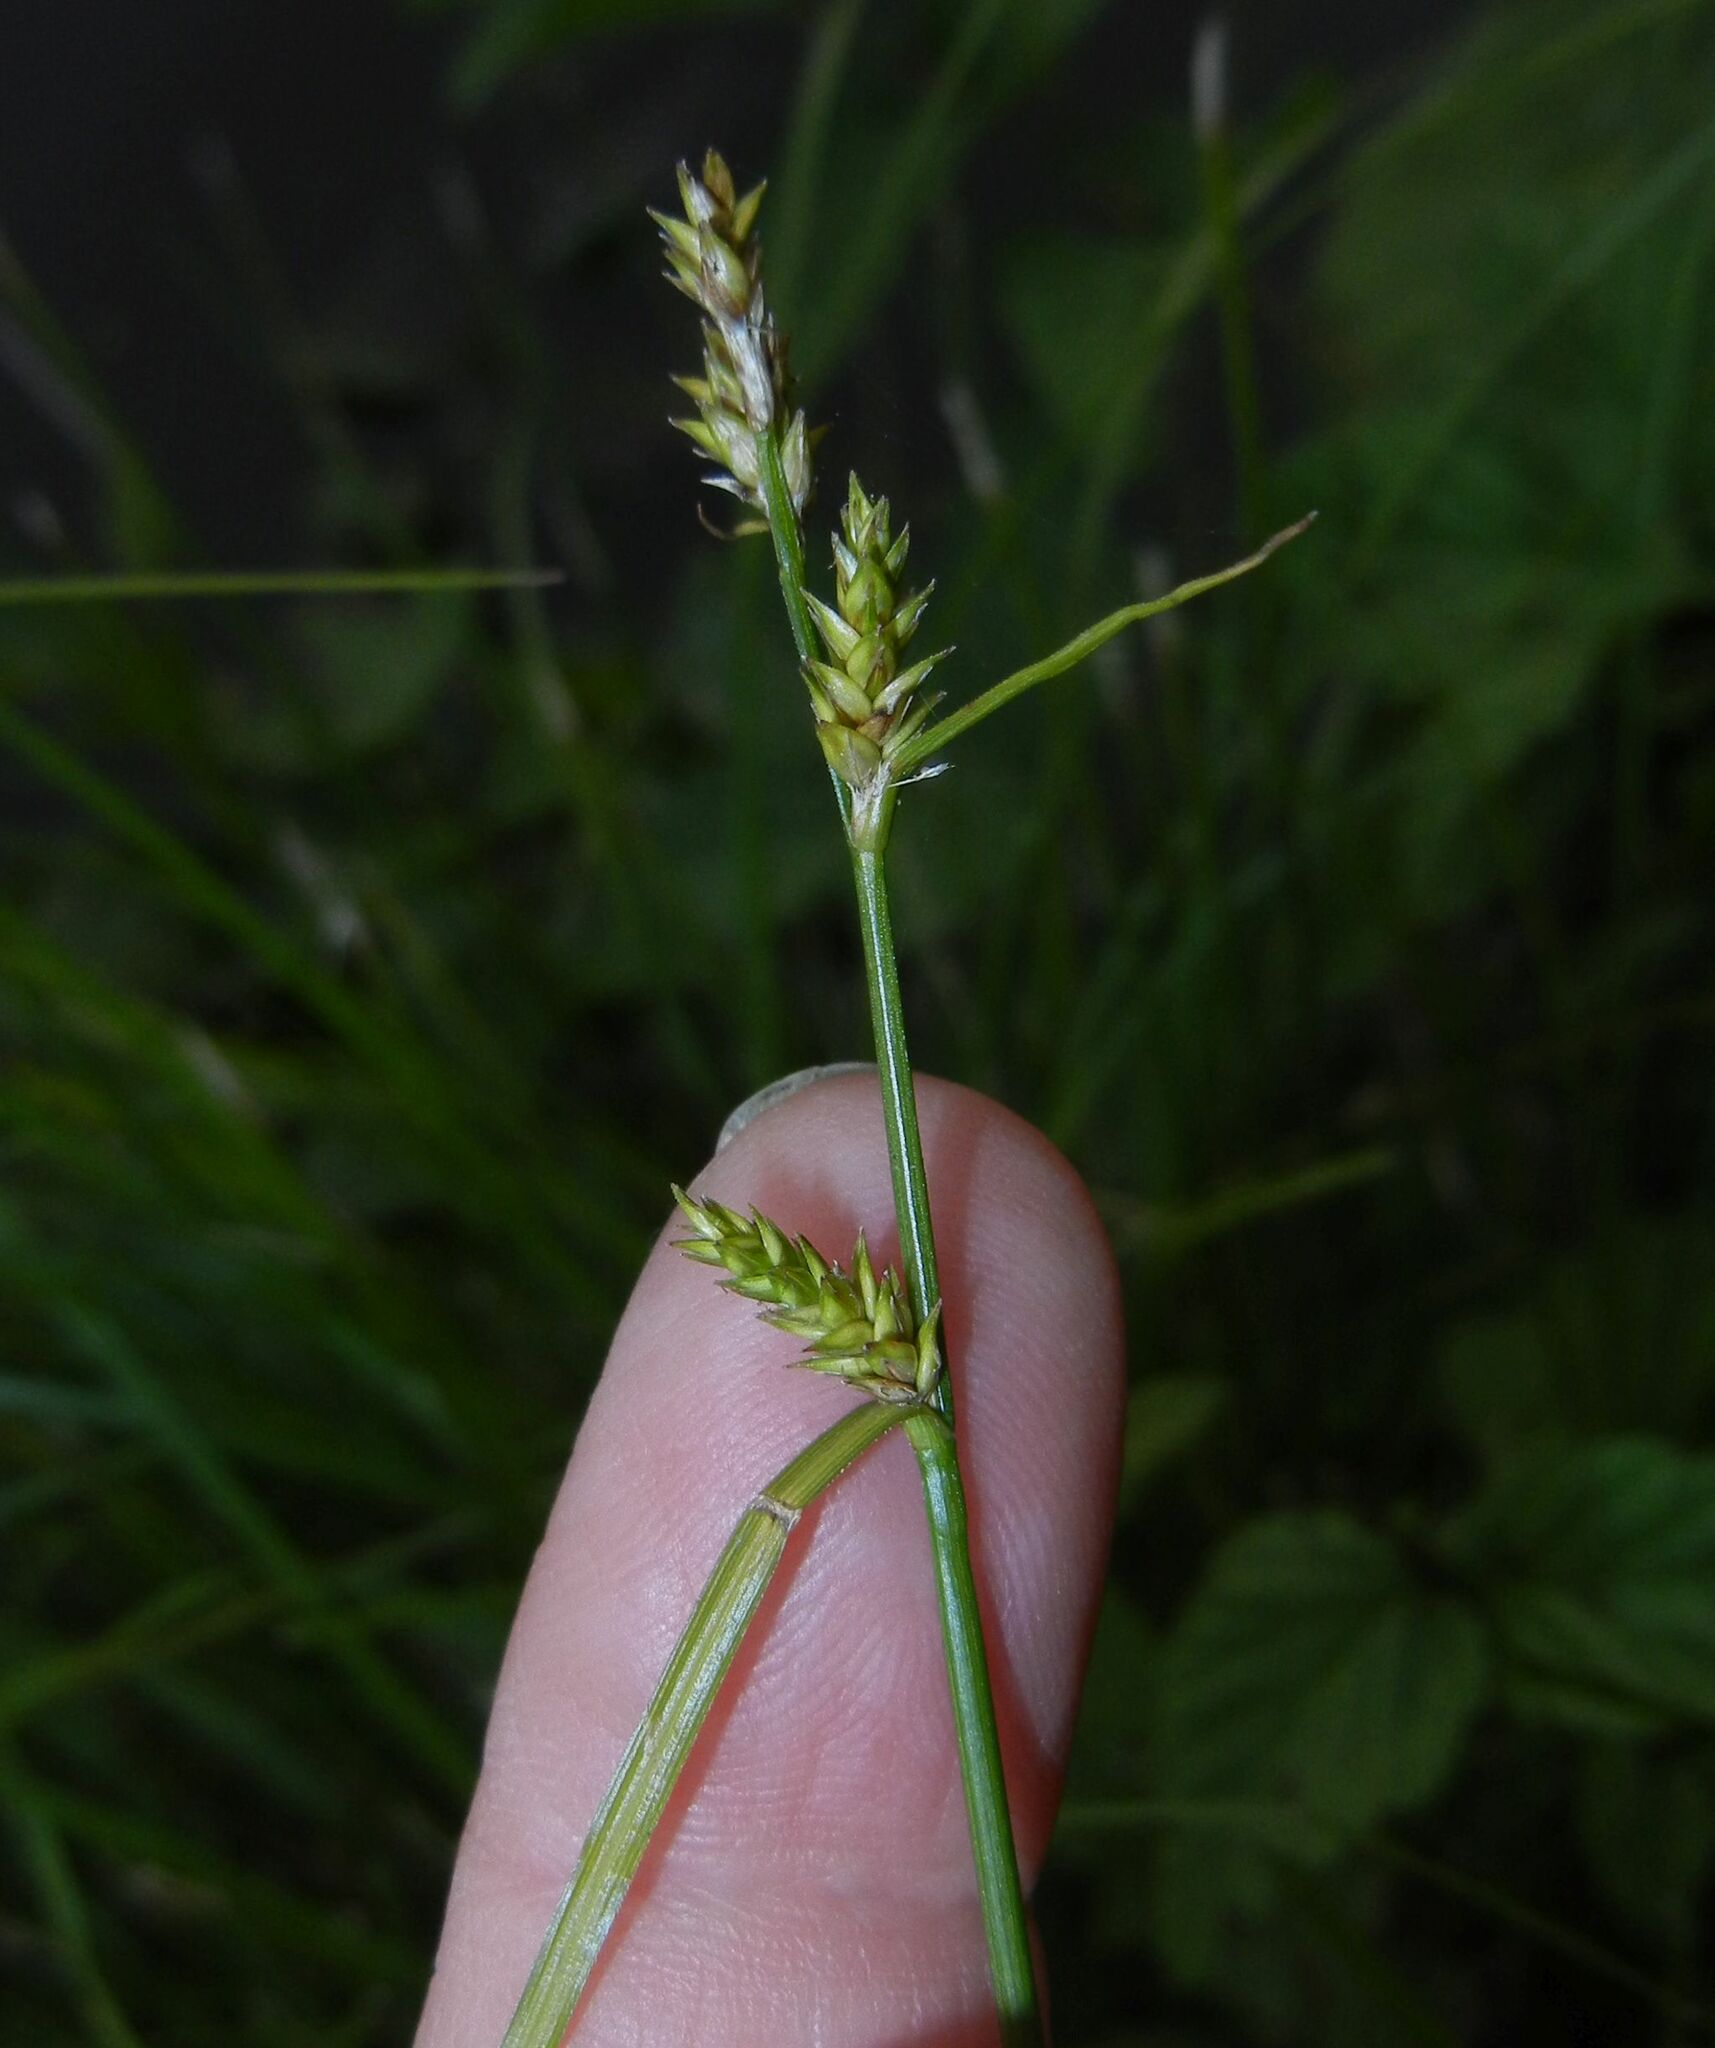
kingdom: Plantae
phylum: Tracheophyta
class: Liliopsida
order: Poales
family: Cyperaceae
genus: Carex
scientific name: Carex remota
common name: Remote sedge
